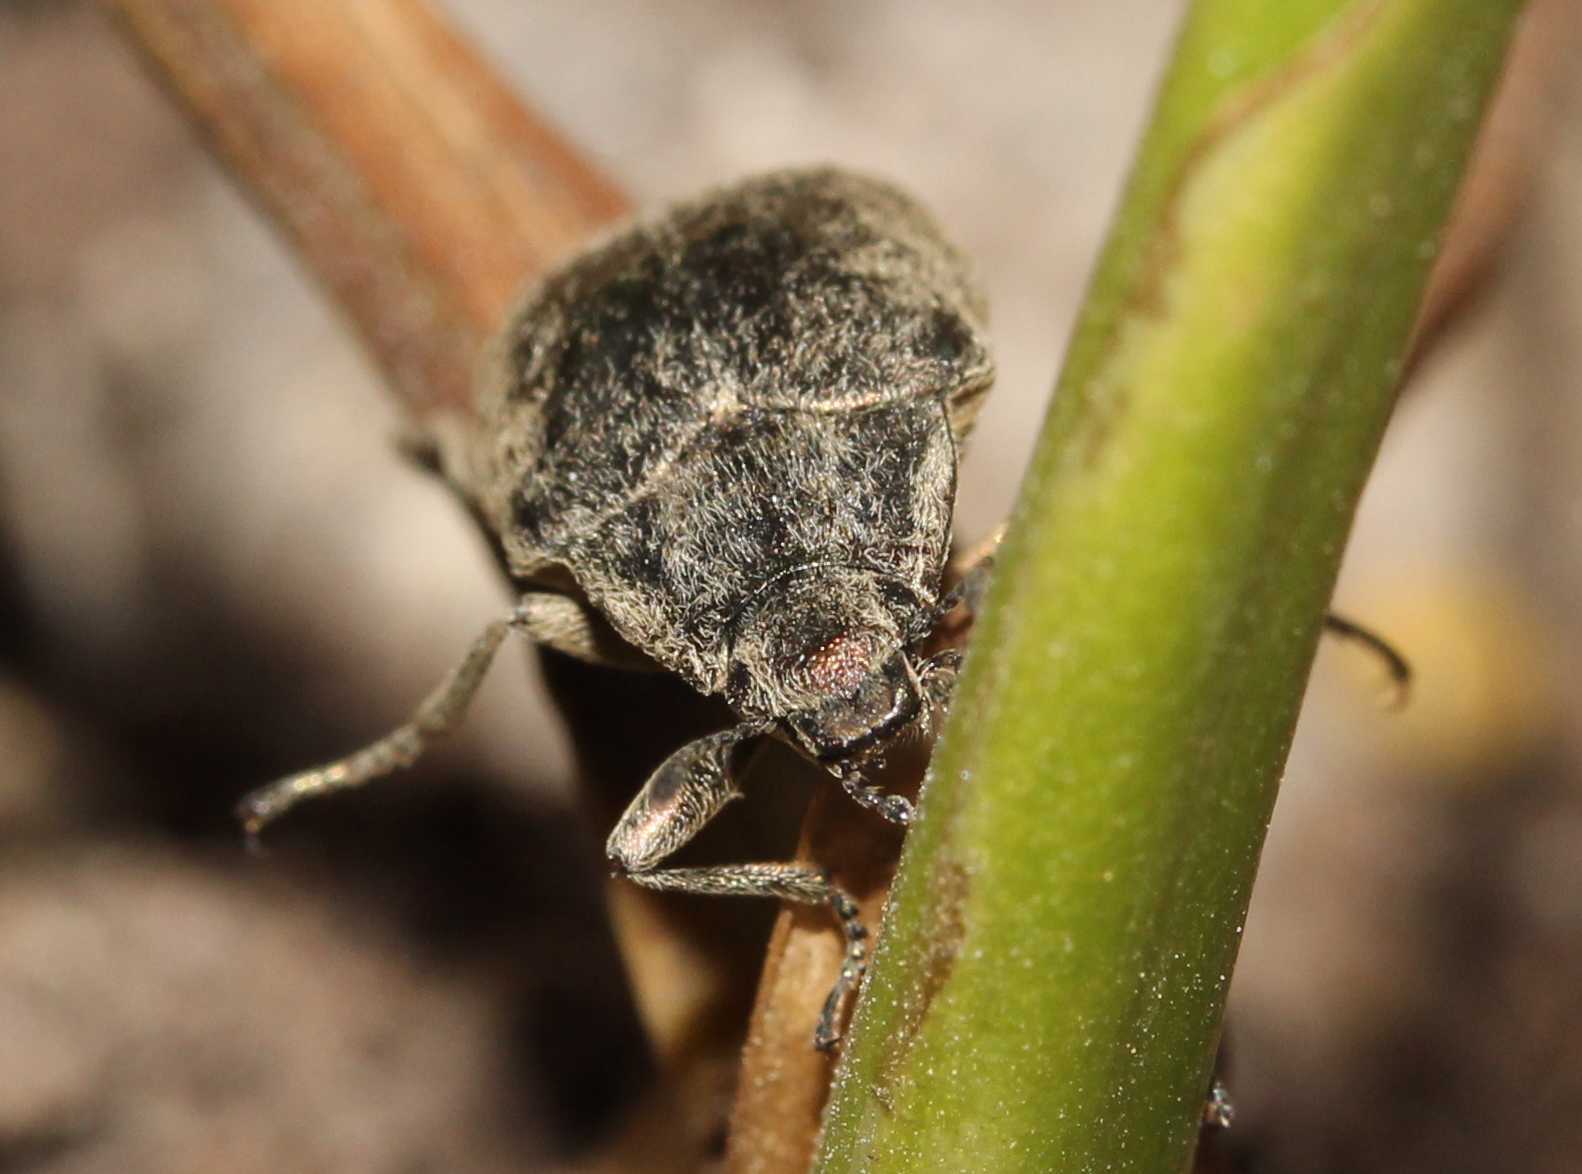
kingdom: Animalia
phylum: Arthropoda
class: Insecta
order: Coleoptera
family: Tenebrionidae
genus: Cyrtomius
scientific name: Cyrtomius plicatus
